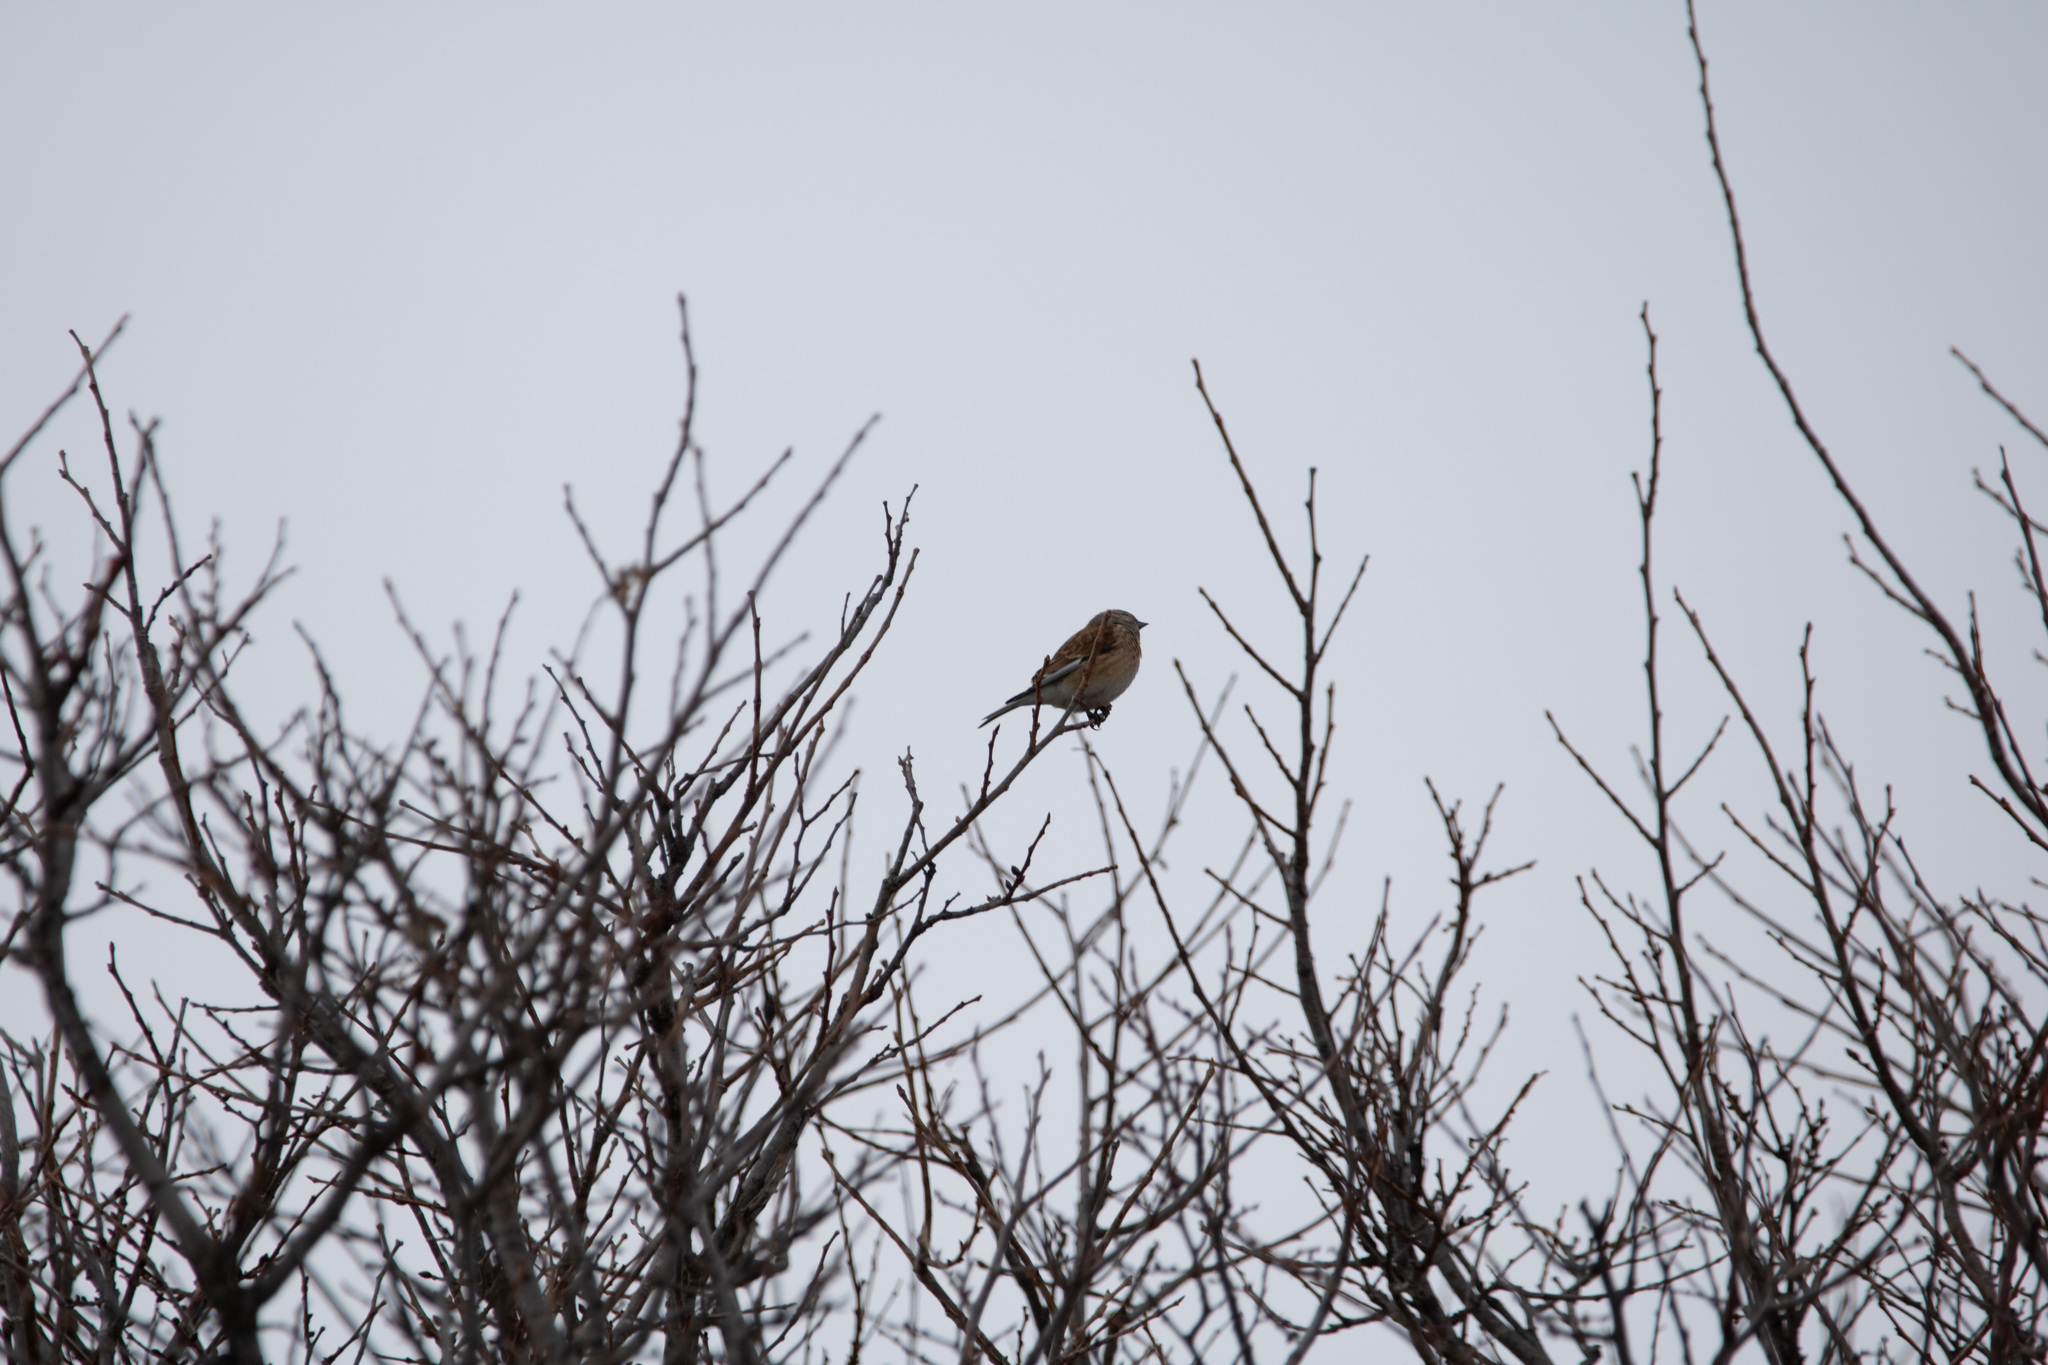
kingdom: Animalia
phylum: Chordata
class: Aves
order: Passeriformes
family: Fringillidae
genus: Linaria
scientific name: Linaria cannabina
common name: Common linnet
